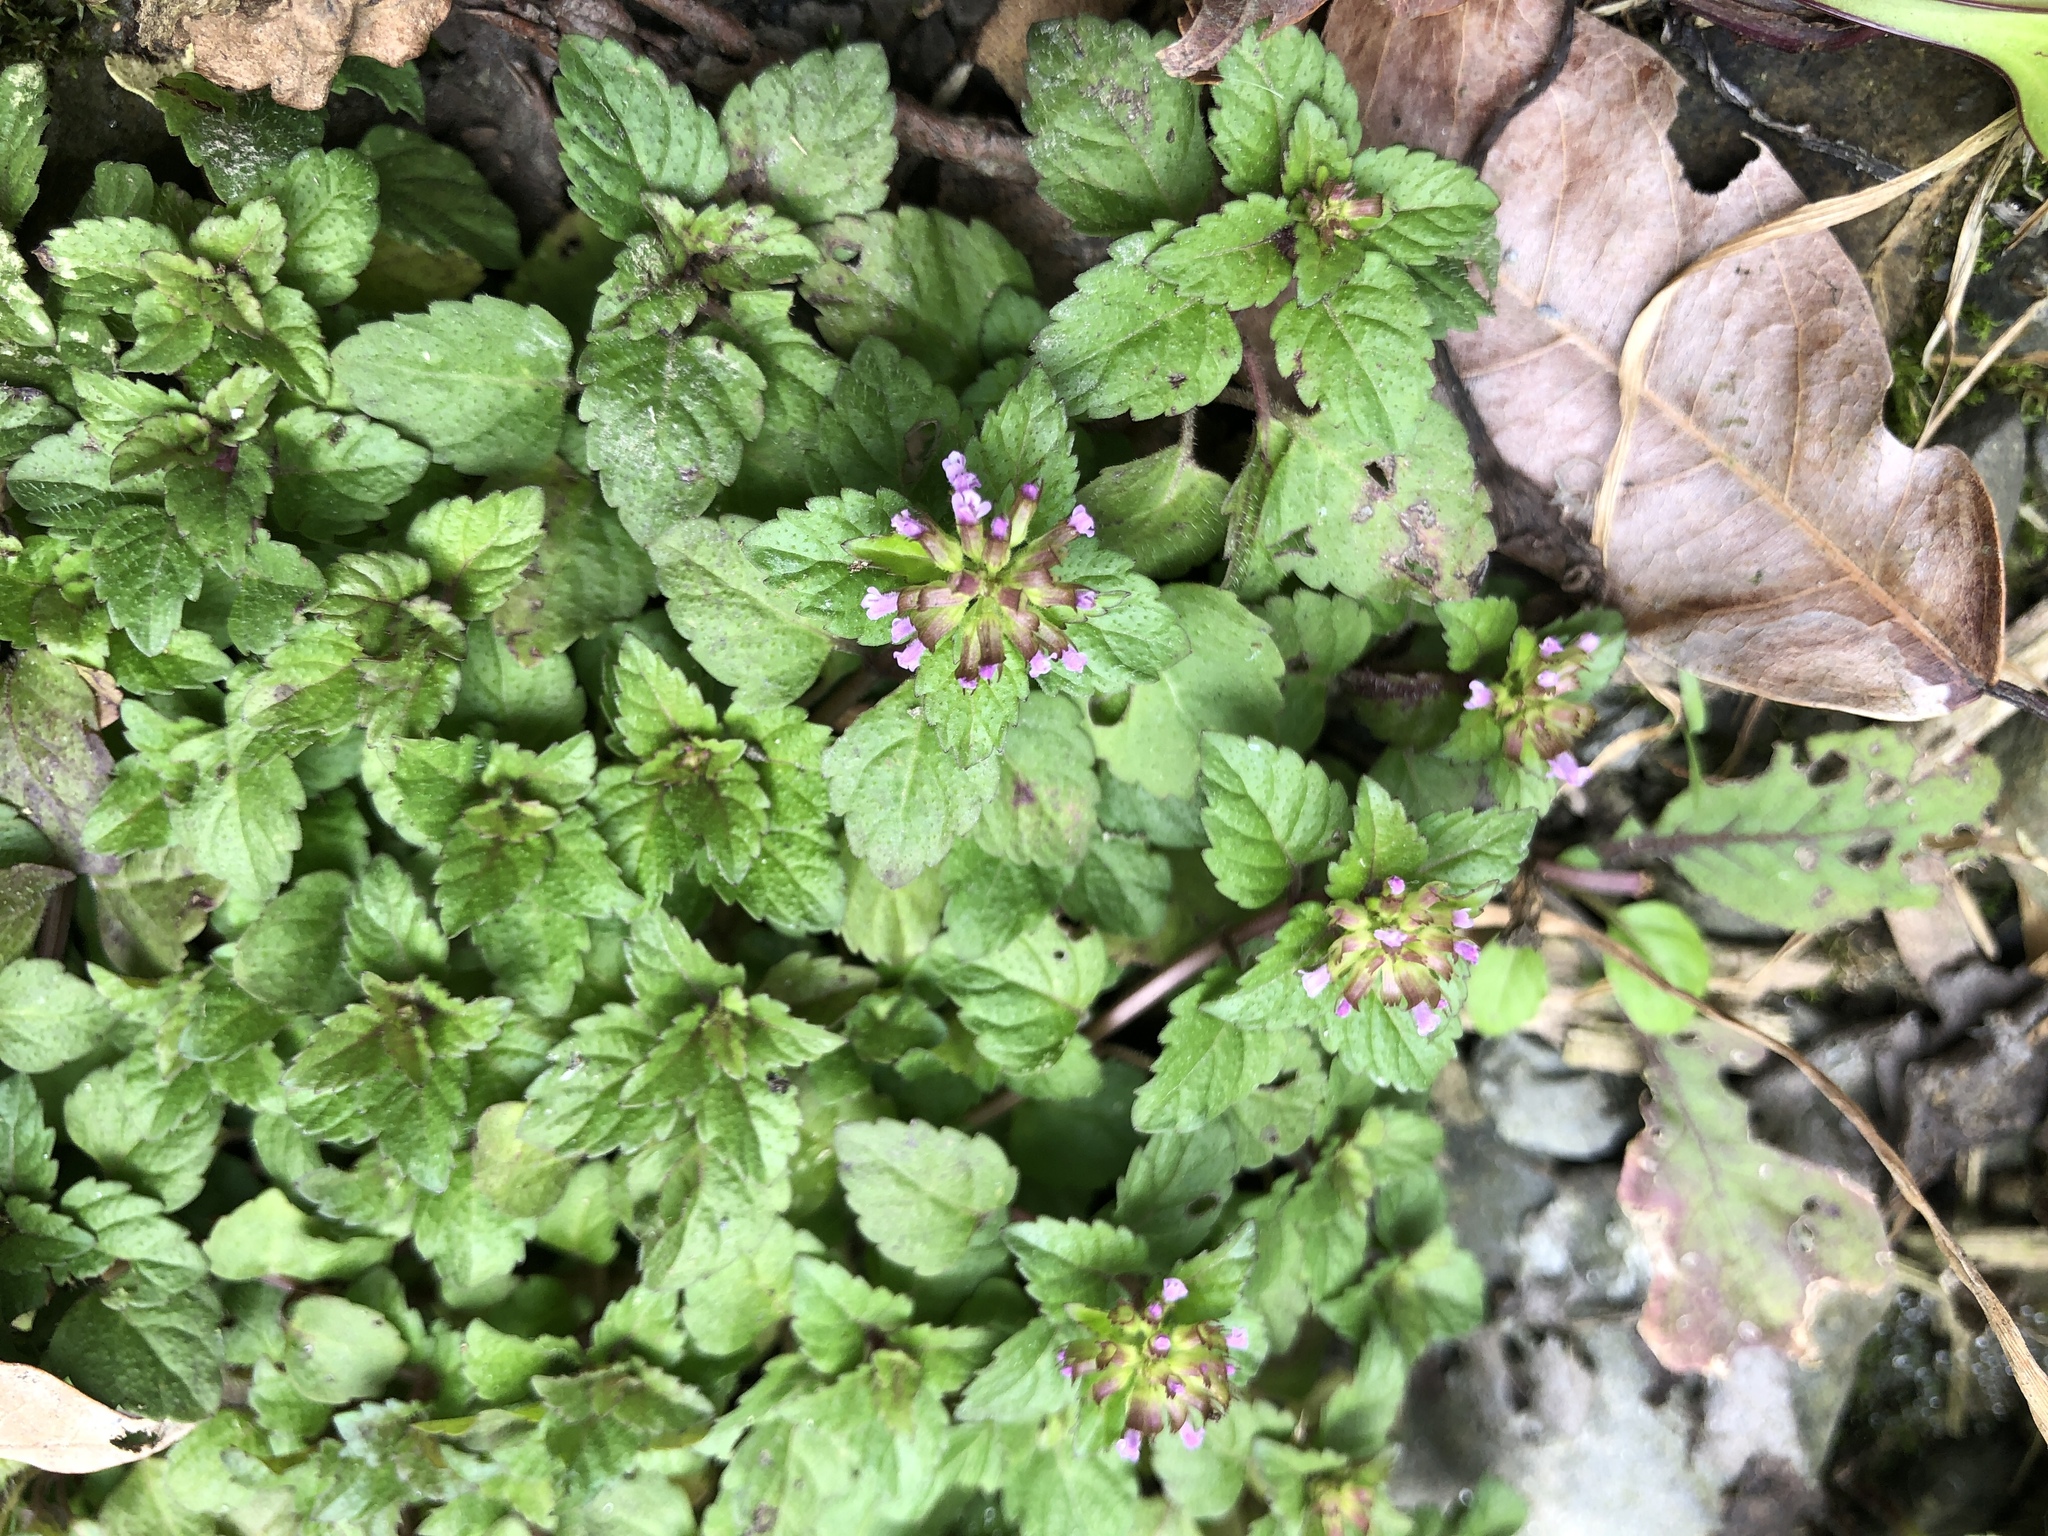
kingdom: Plantae
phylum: Tracheophyta
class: Magnoliopsida
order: Lamiales
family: Lamiaceae
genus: Clinopodium
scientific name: Clinopodium gracile
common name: Slender wild basil
